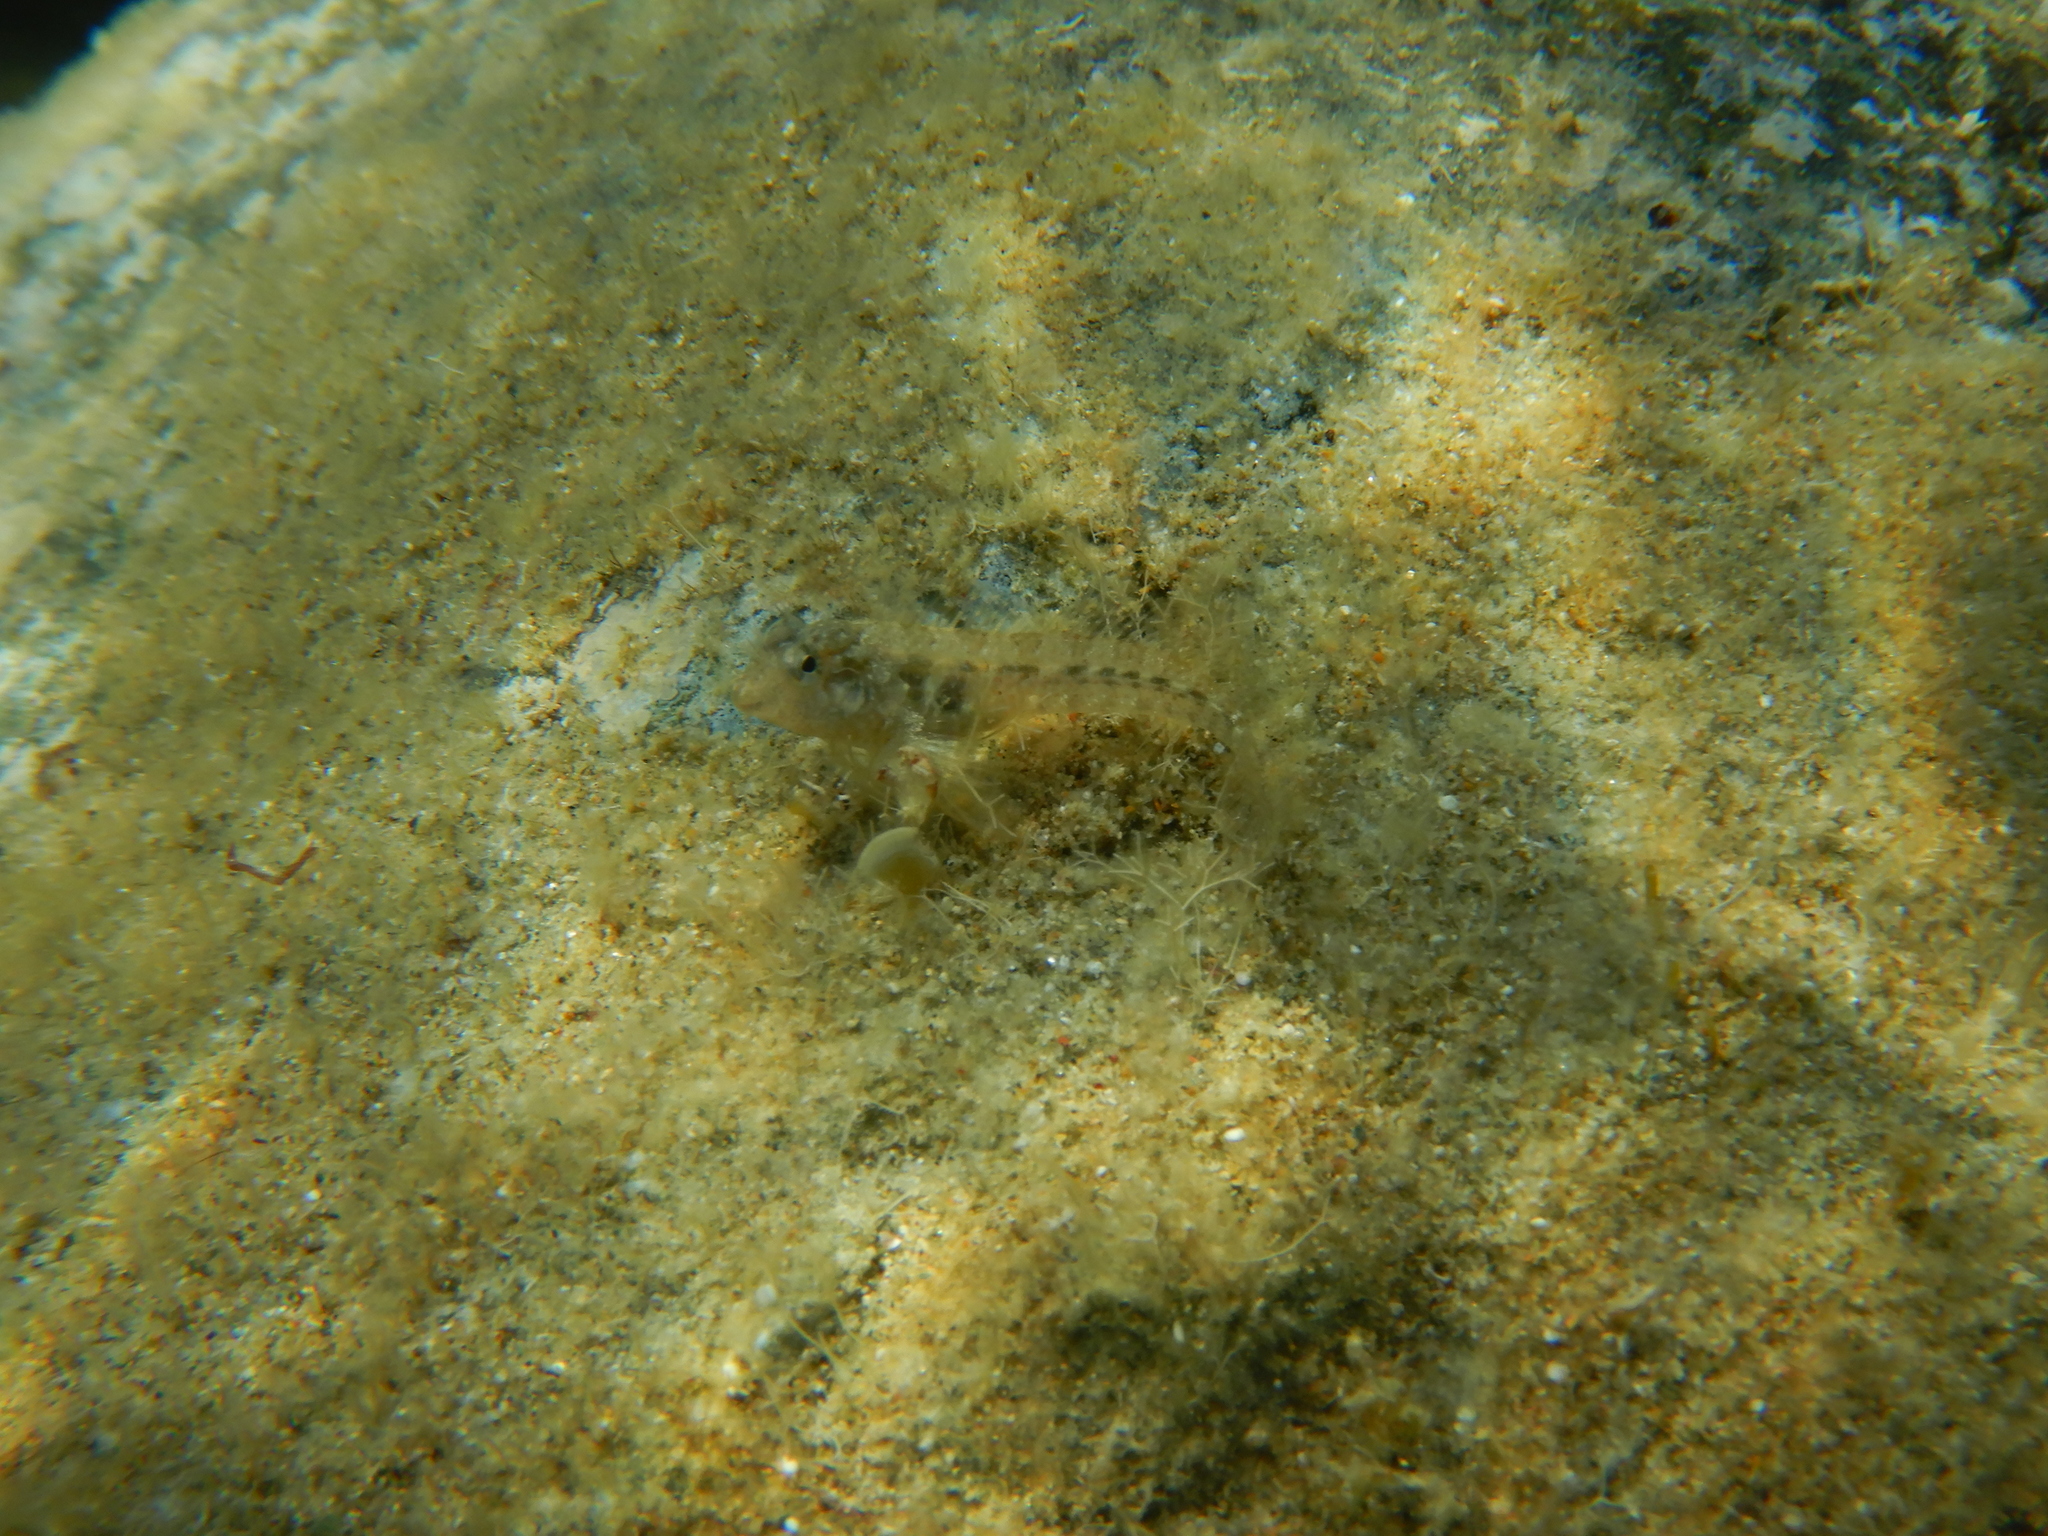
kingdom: Animalia
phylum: Chordata
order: Perciformes
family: Blenniidae
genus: Parablennius
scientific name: Parablennius incognitus
